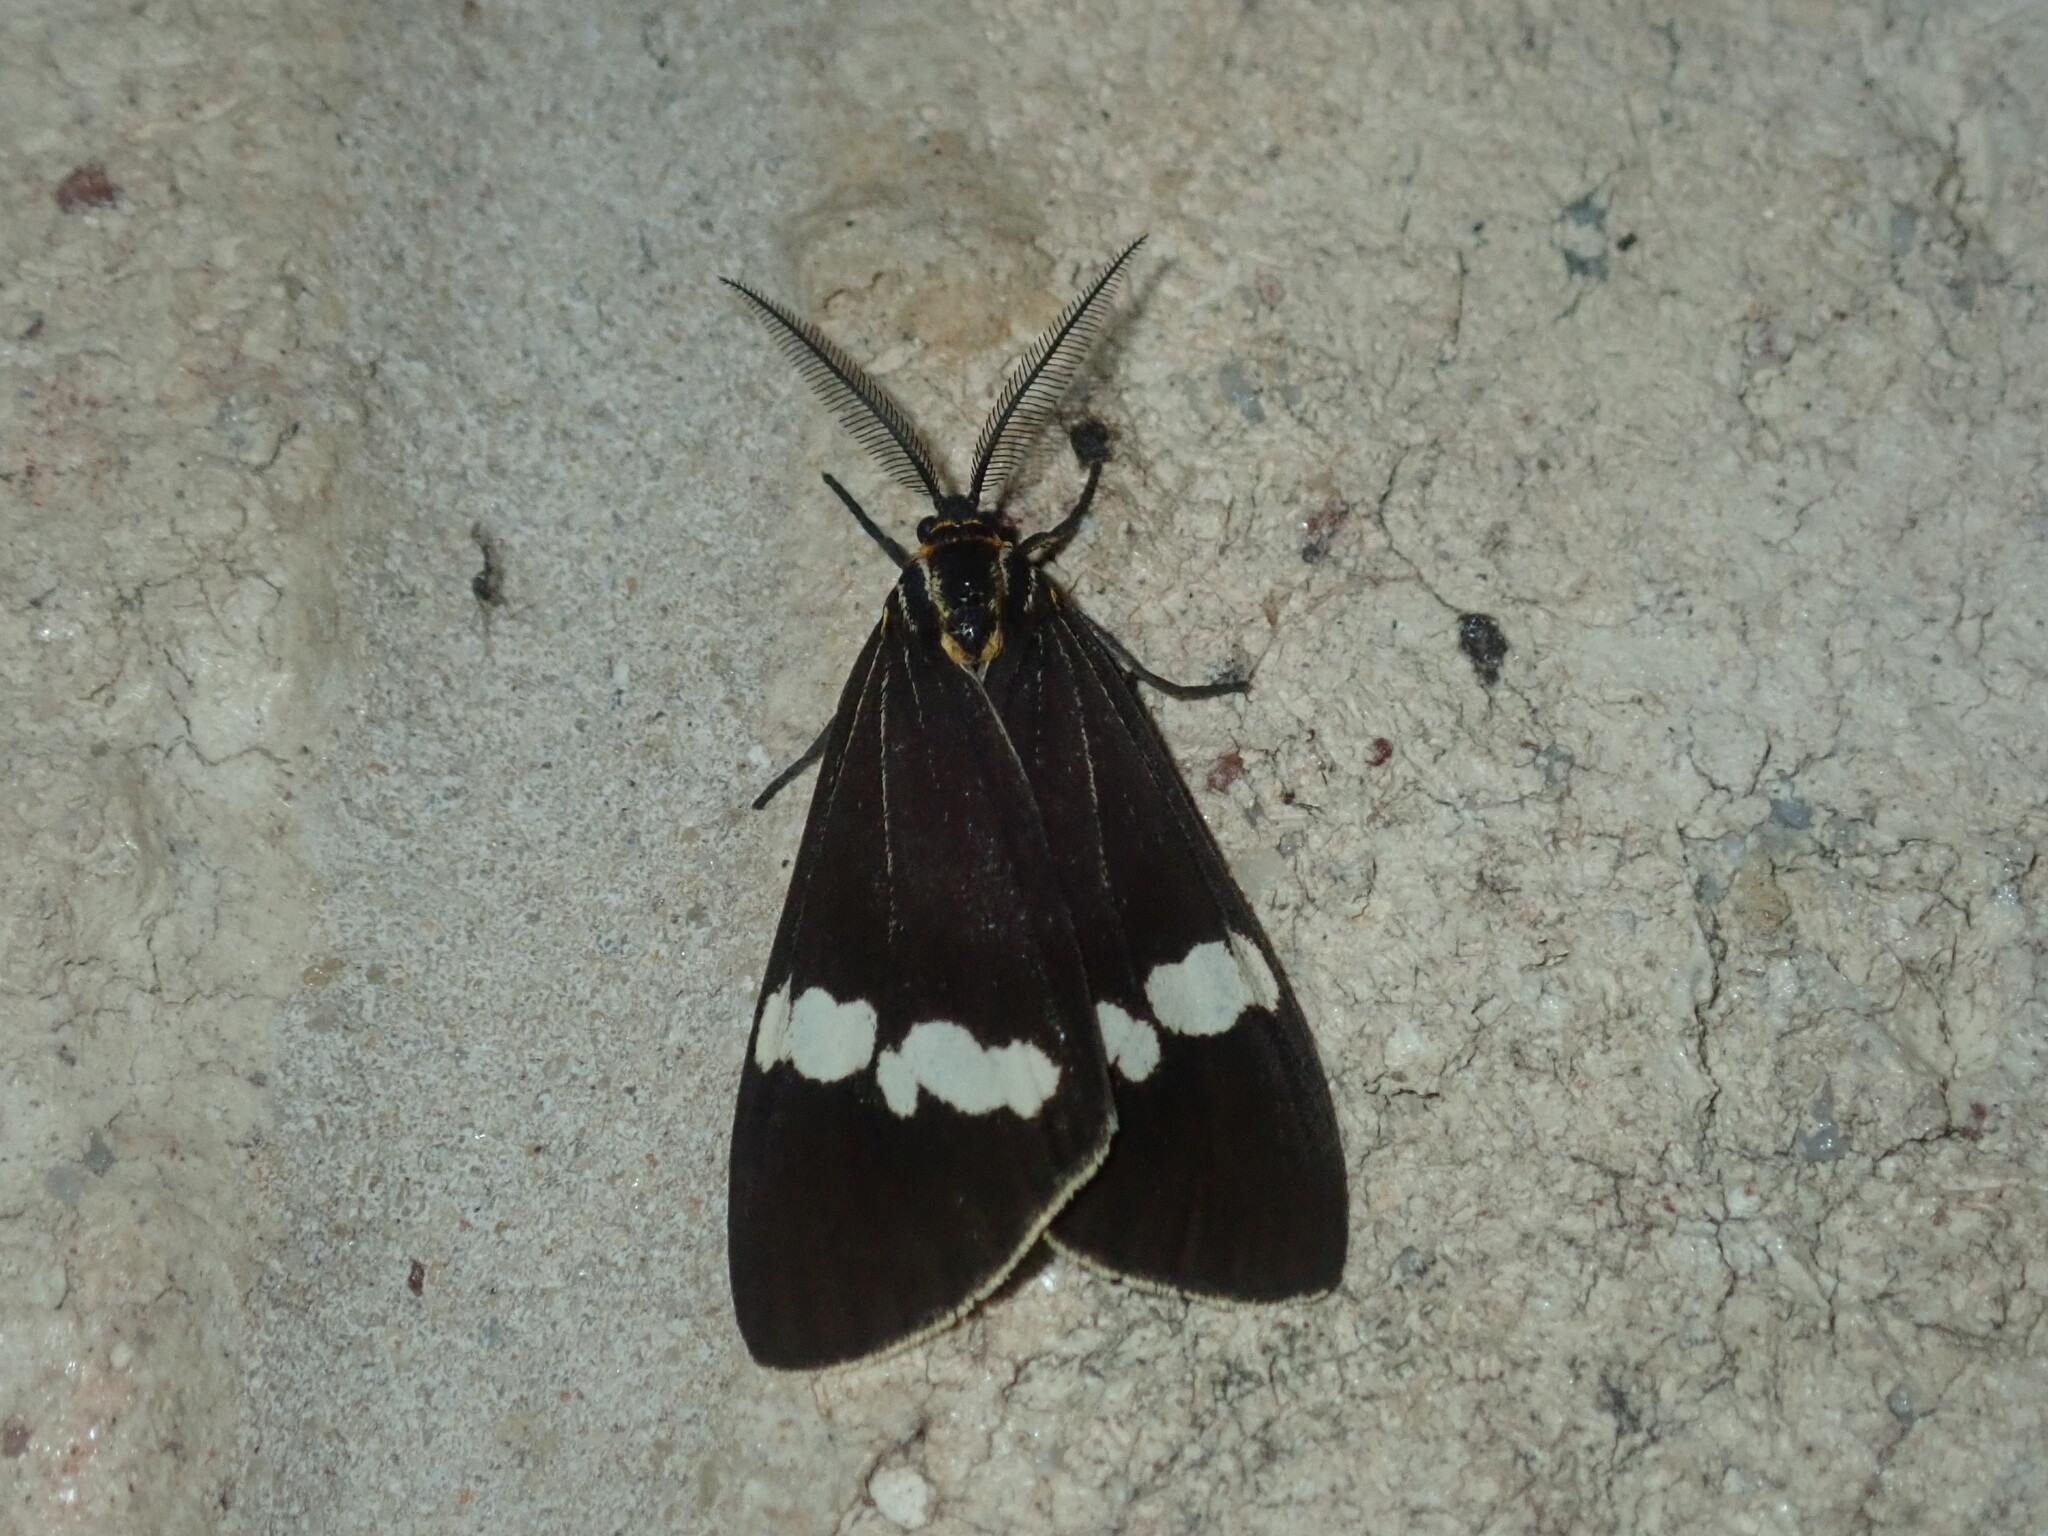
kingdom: Animalia
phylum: Arthropoda
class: Insecta
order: Lepidoptera
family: Erebidae
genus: Nyctemera
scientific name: Nyctemera amicus
